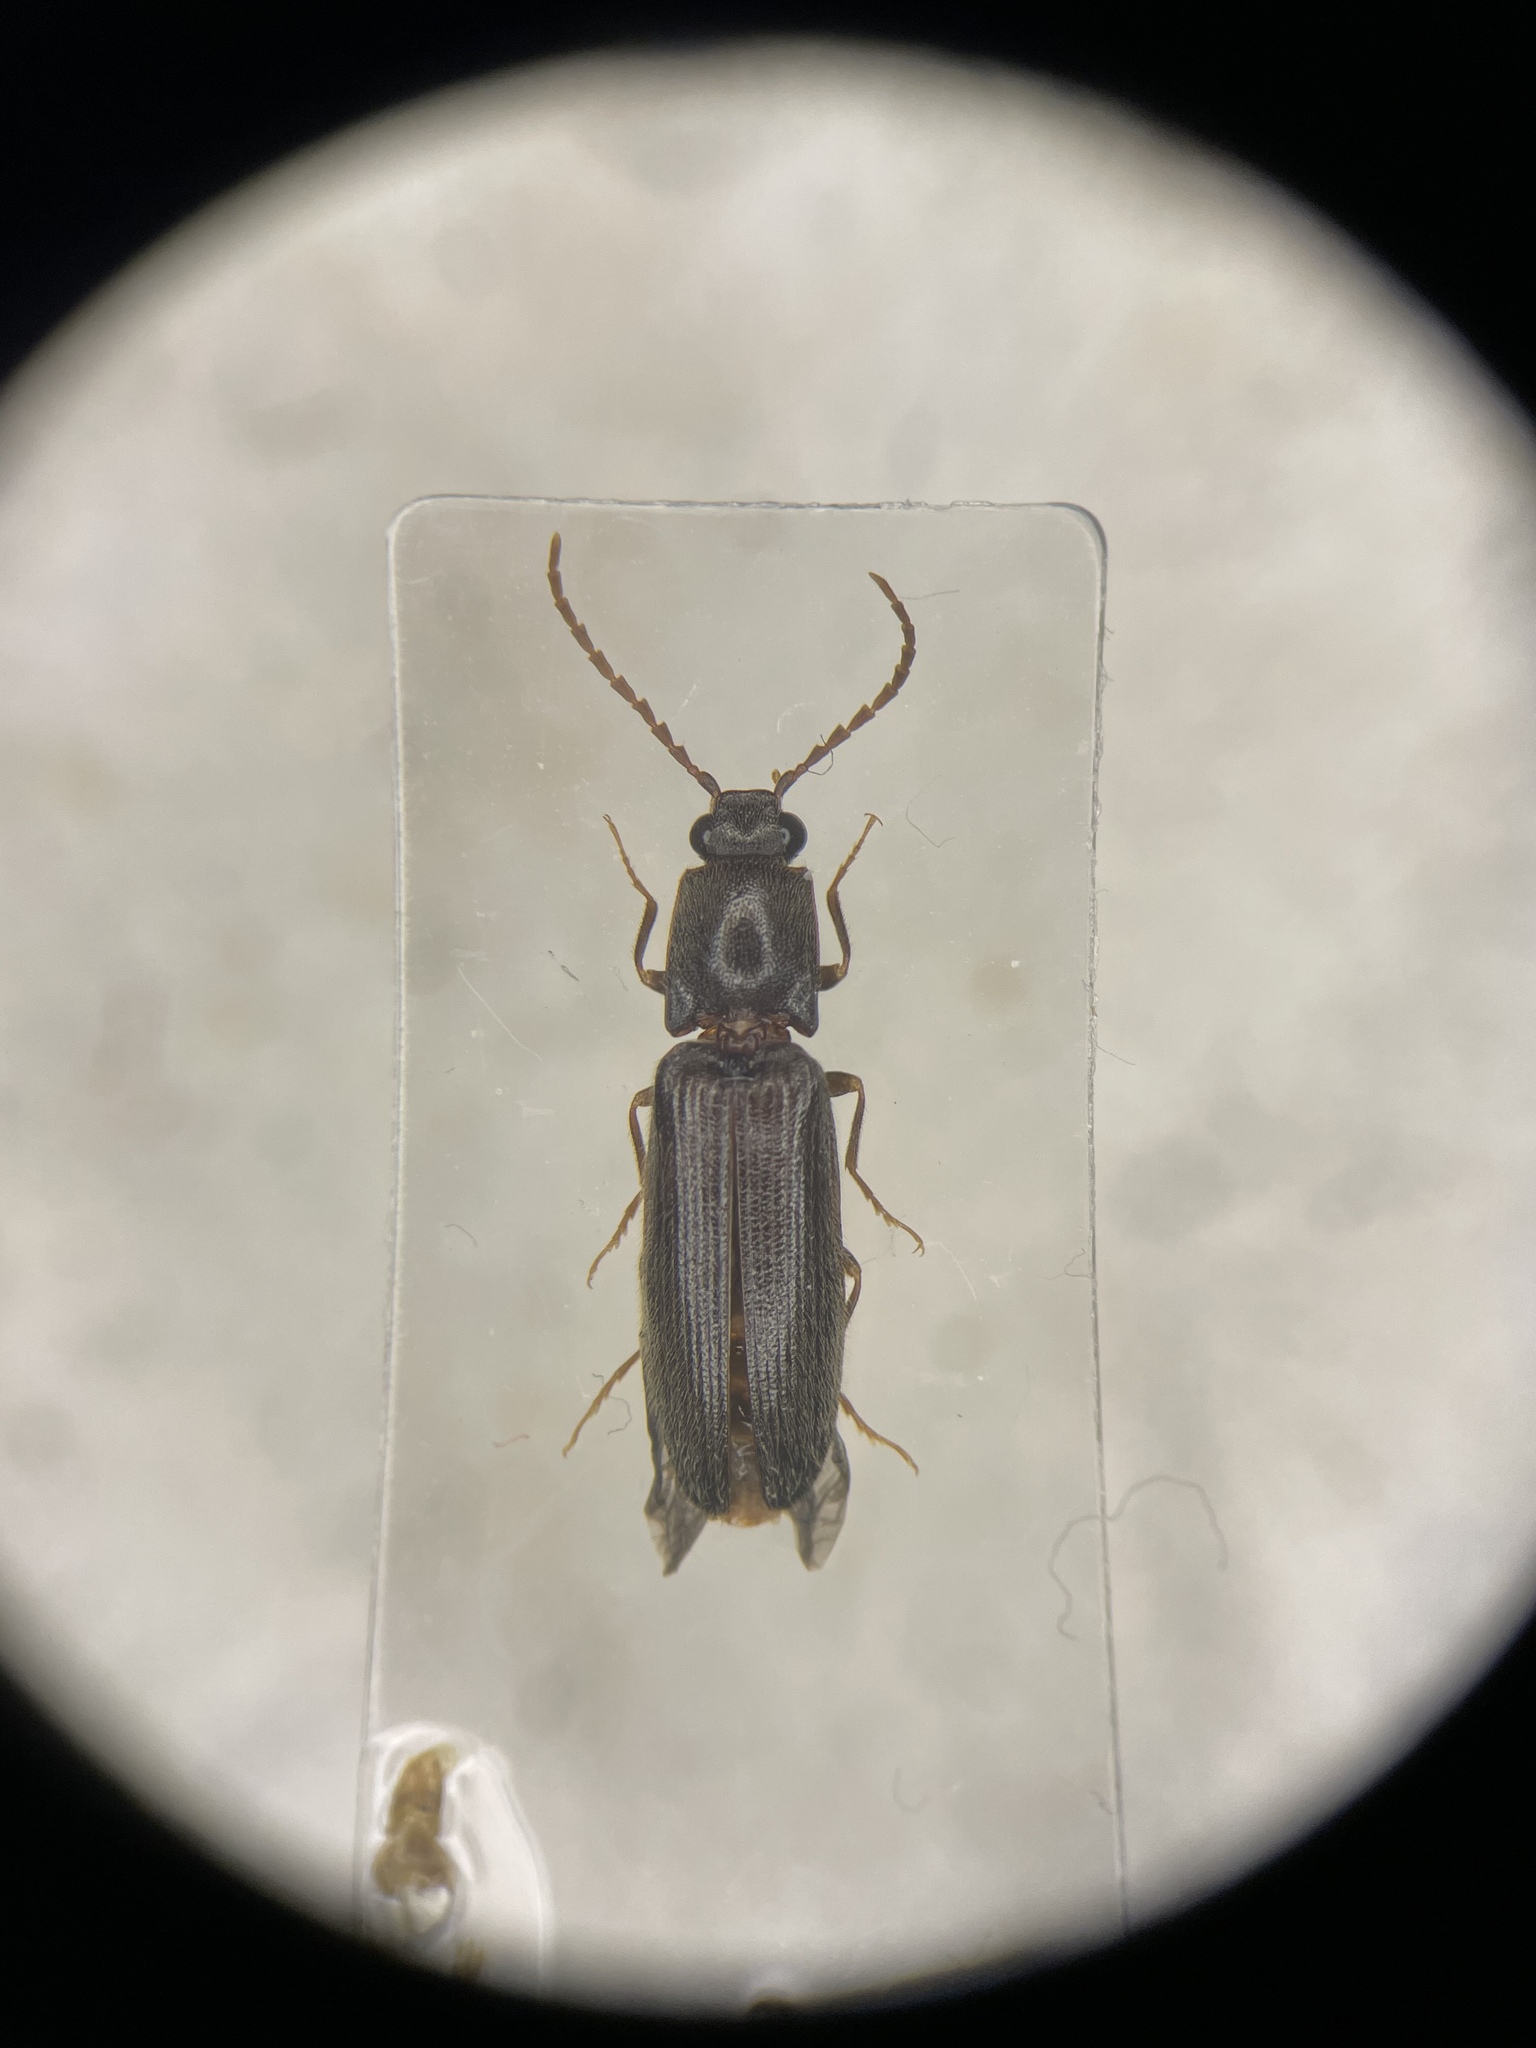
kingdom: Animalia
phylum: Arthropoda
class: Insecta
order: Coleoptera
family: Elateridae
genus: Athous
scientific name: Athous fossularis
